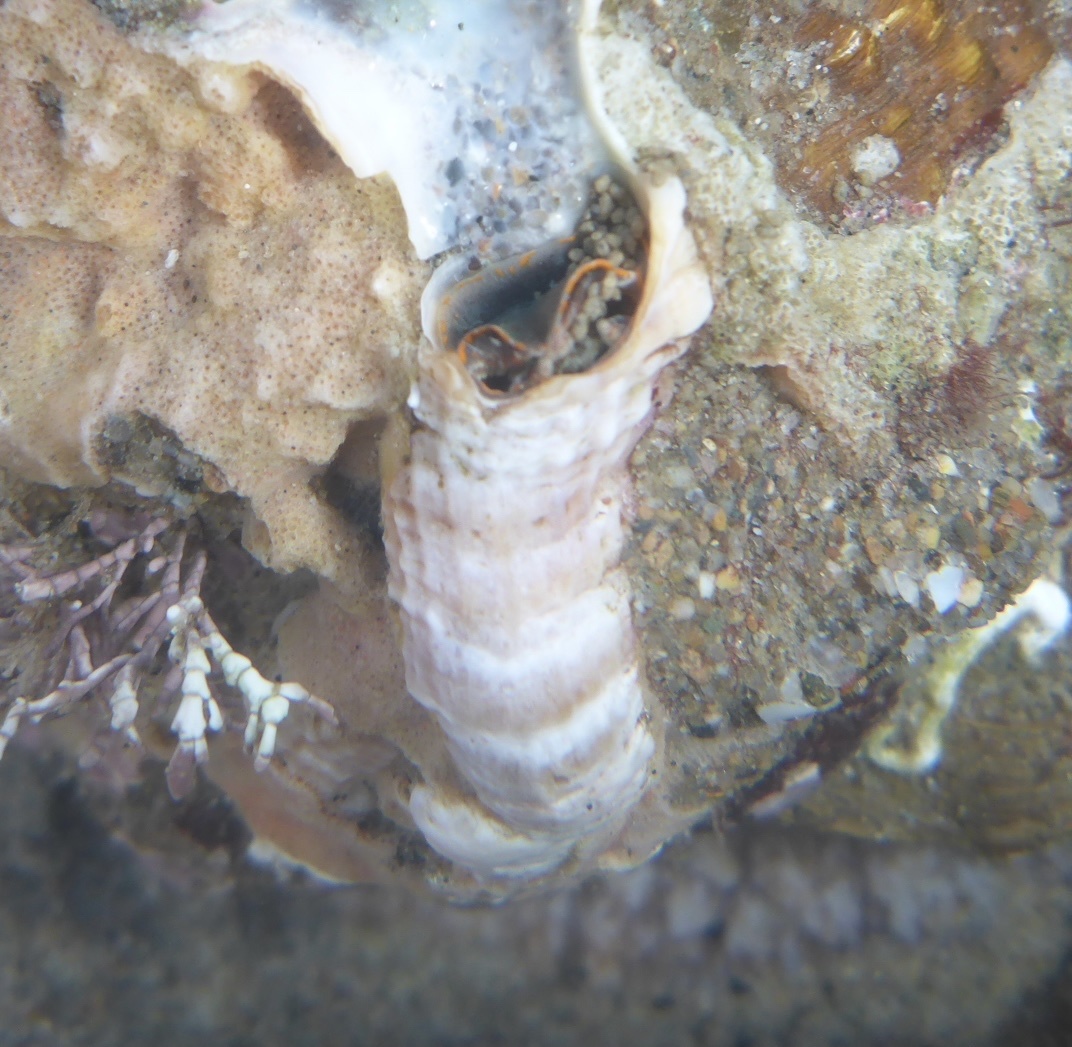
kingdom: Animalia
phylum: Mollusca
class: Gastropoda
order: Littorinimorpha
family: Vermetidae
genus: Thylacodes
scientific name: Thylacodes squamigerus
